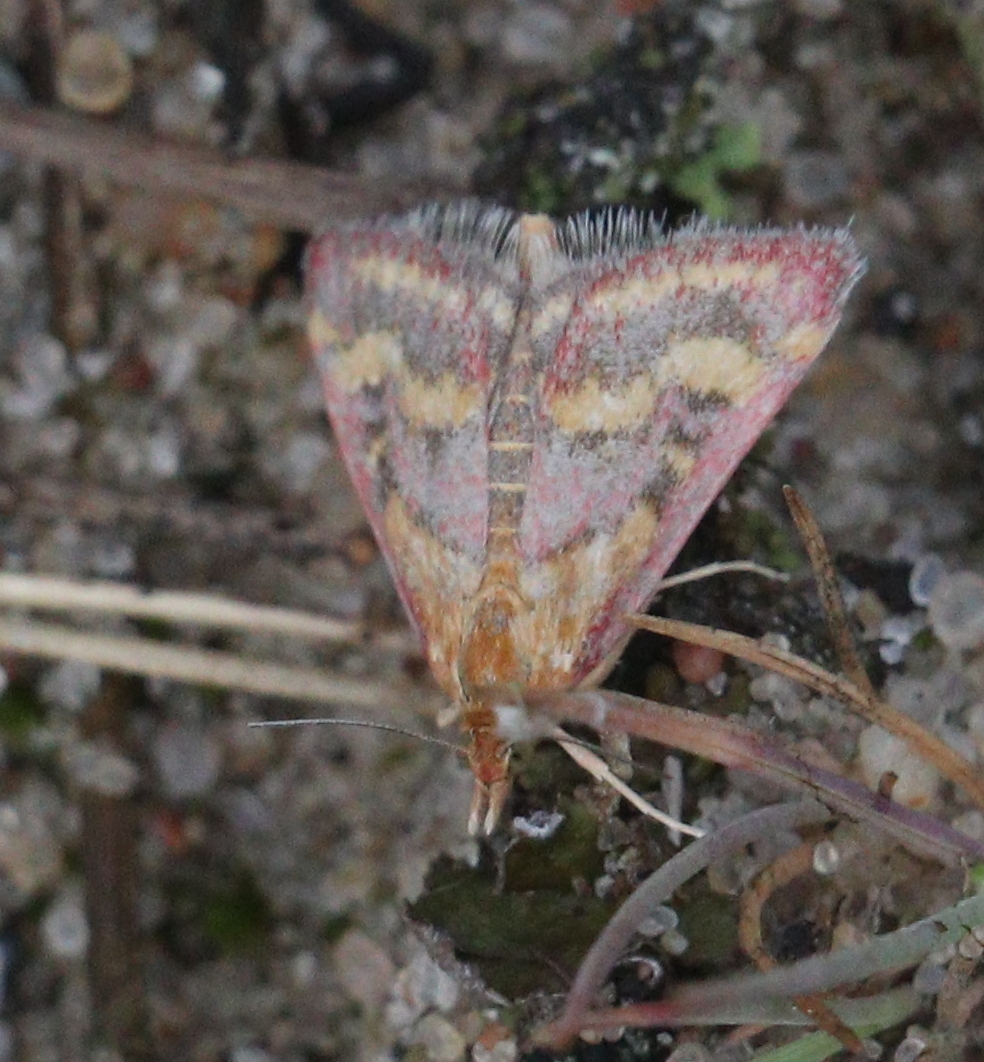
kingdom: Animalia
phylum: Arthropoda
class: Insecta
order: Lepidoptera
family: Crambidae
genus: Pyrausta
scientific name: Pyrausta ostrinalis
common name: Scarce purple & gold
